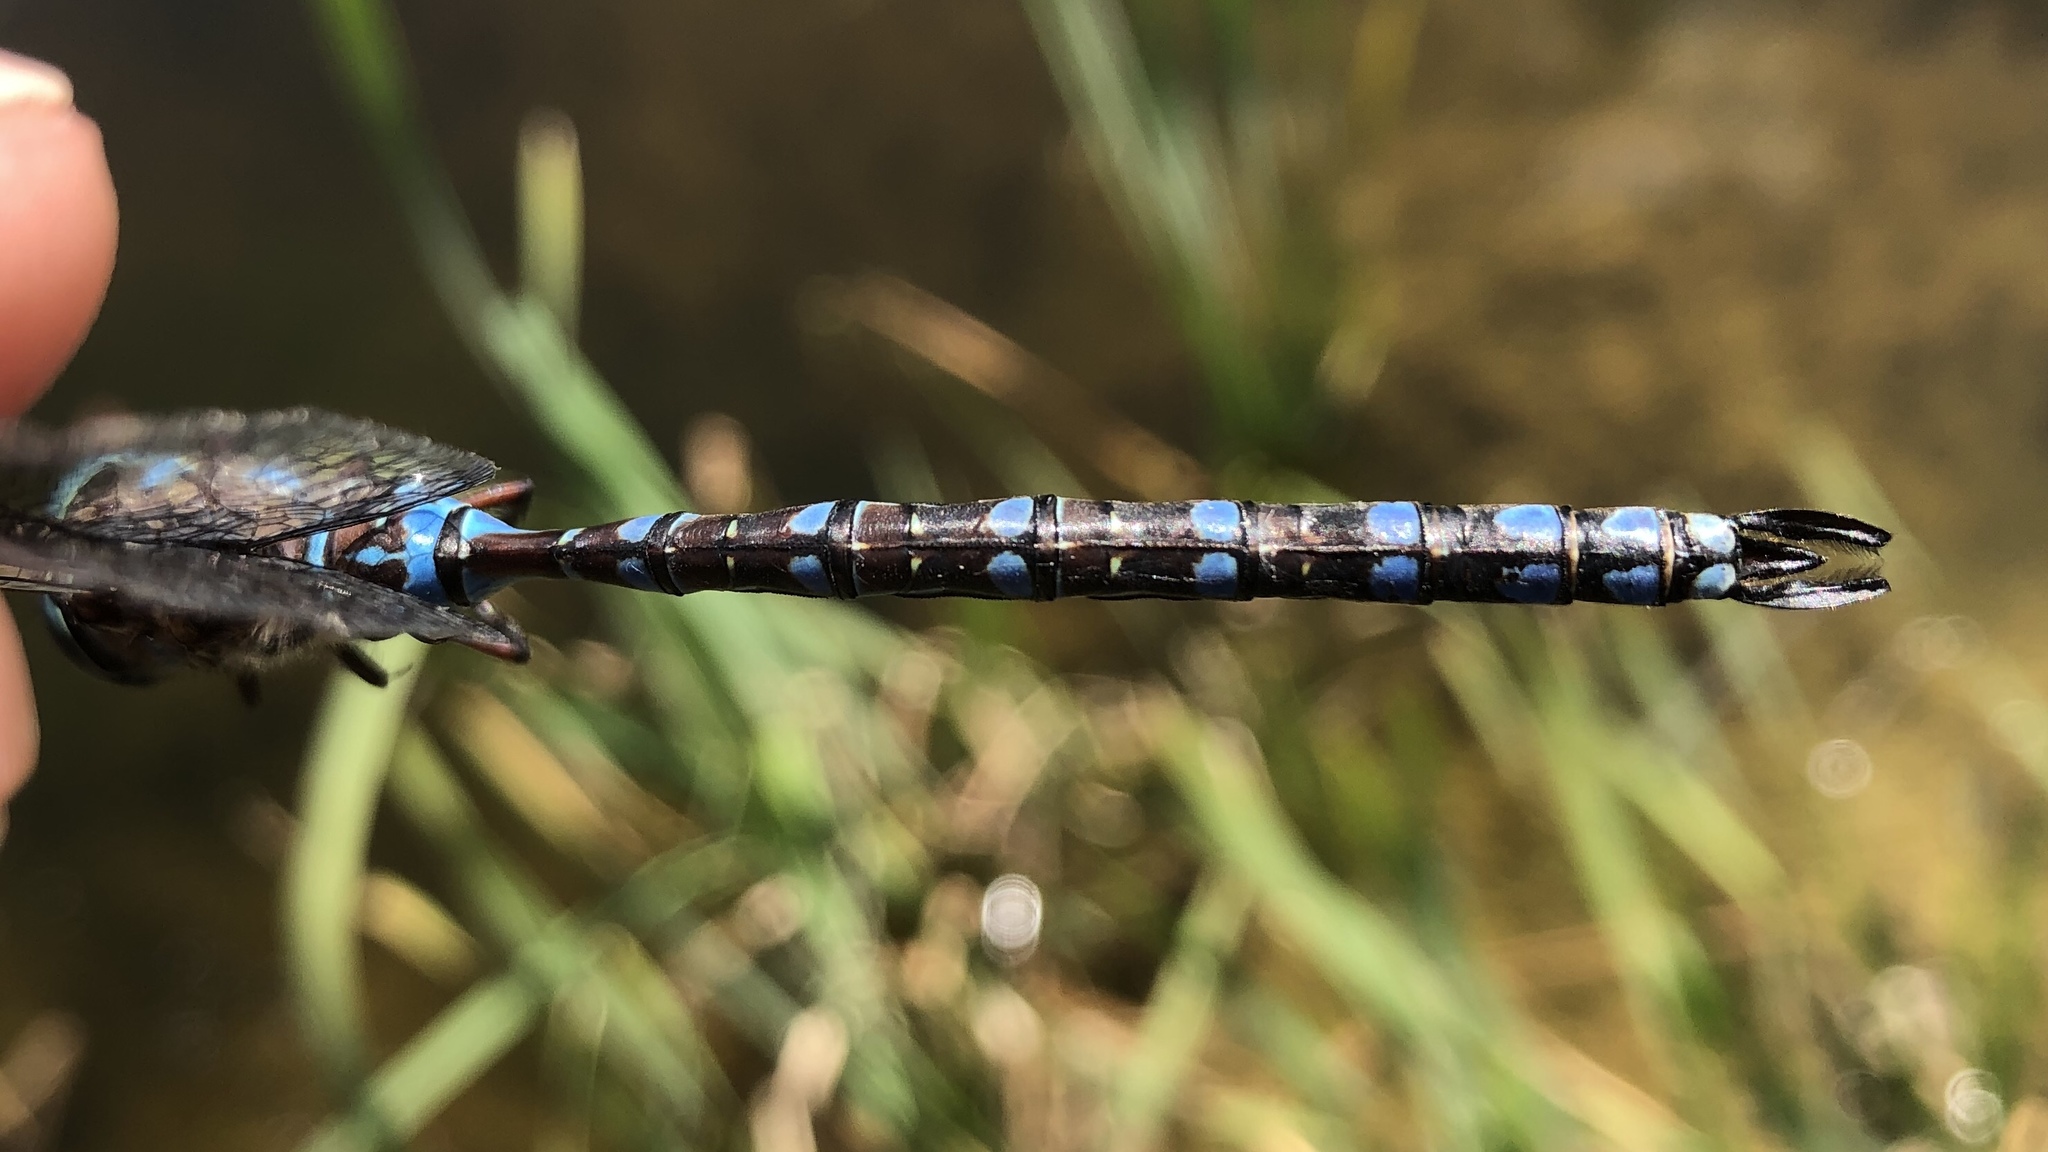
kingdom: Animalia
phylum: Arthropoda
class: Insecta
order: Odonata
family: Aeshnidae
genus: Aeshna
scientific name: Aeshna canadensis
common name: Canada darner
